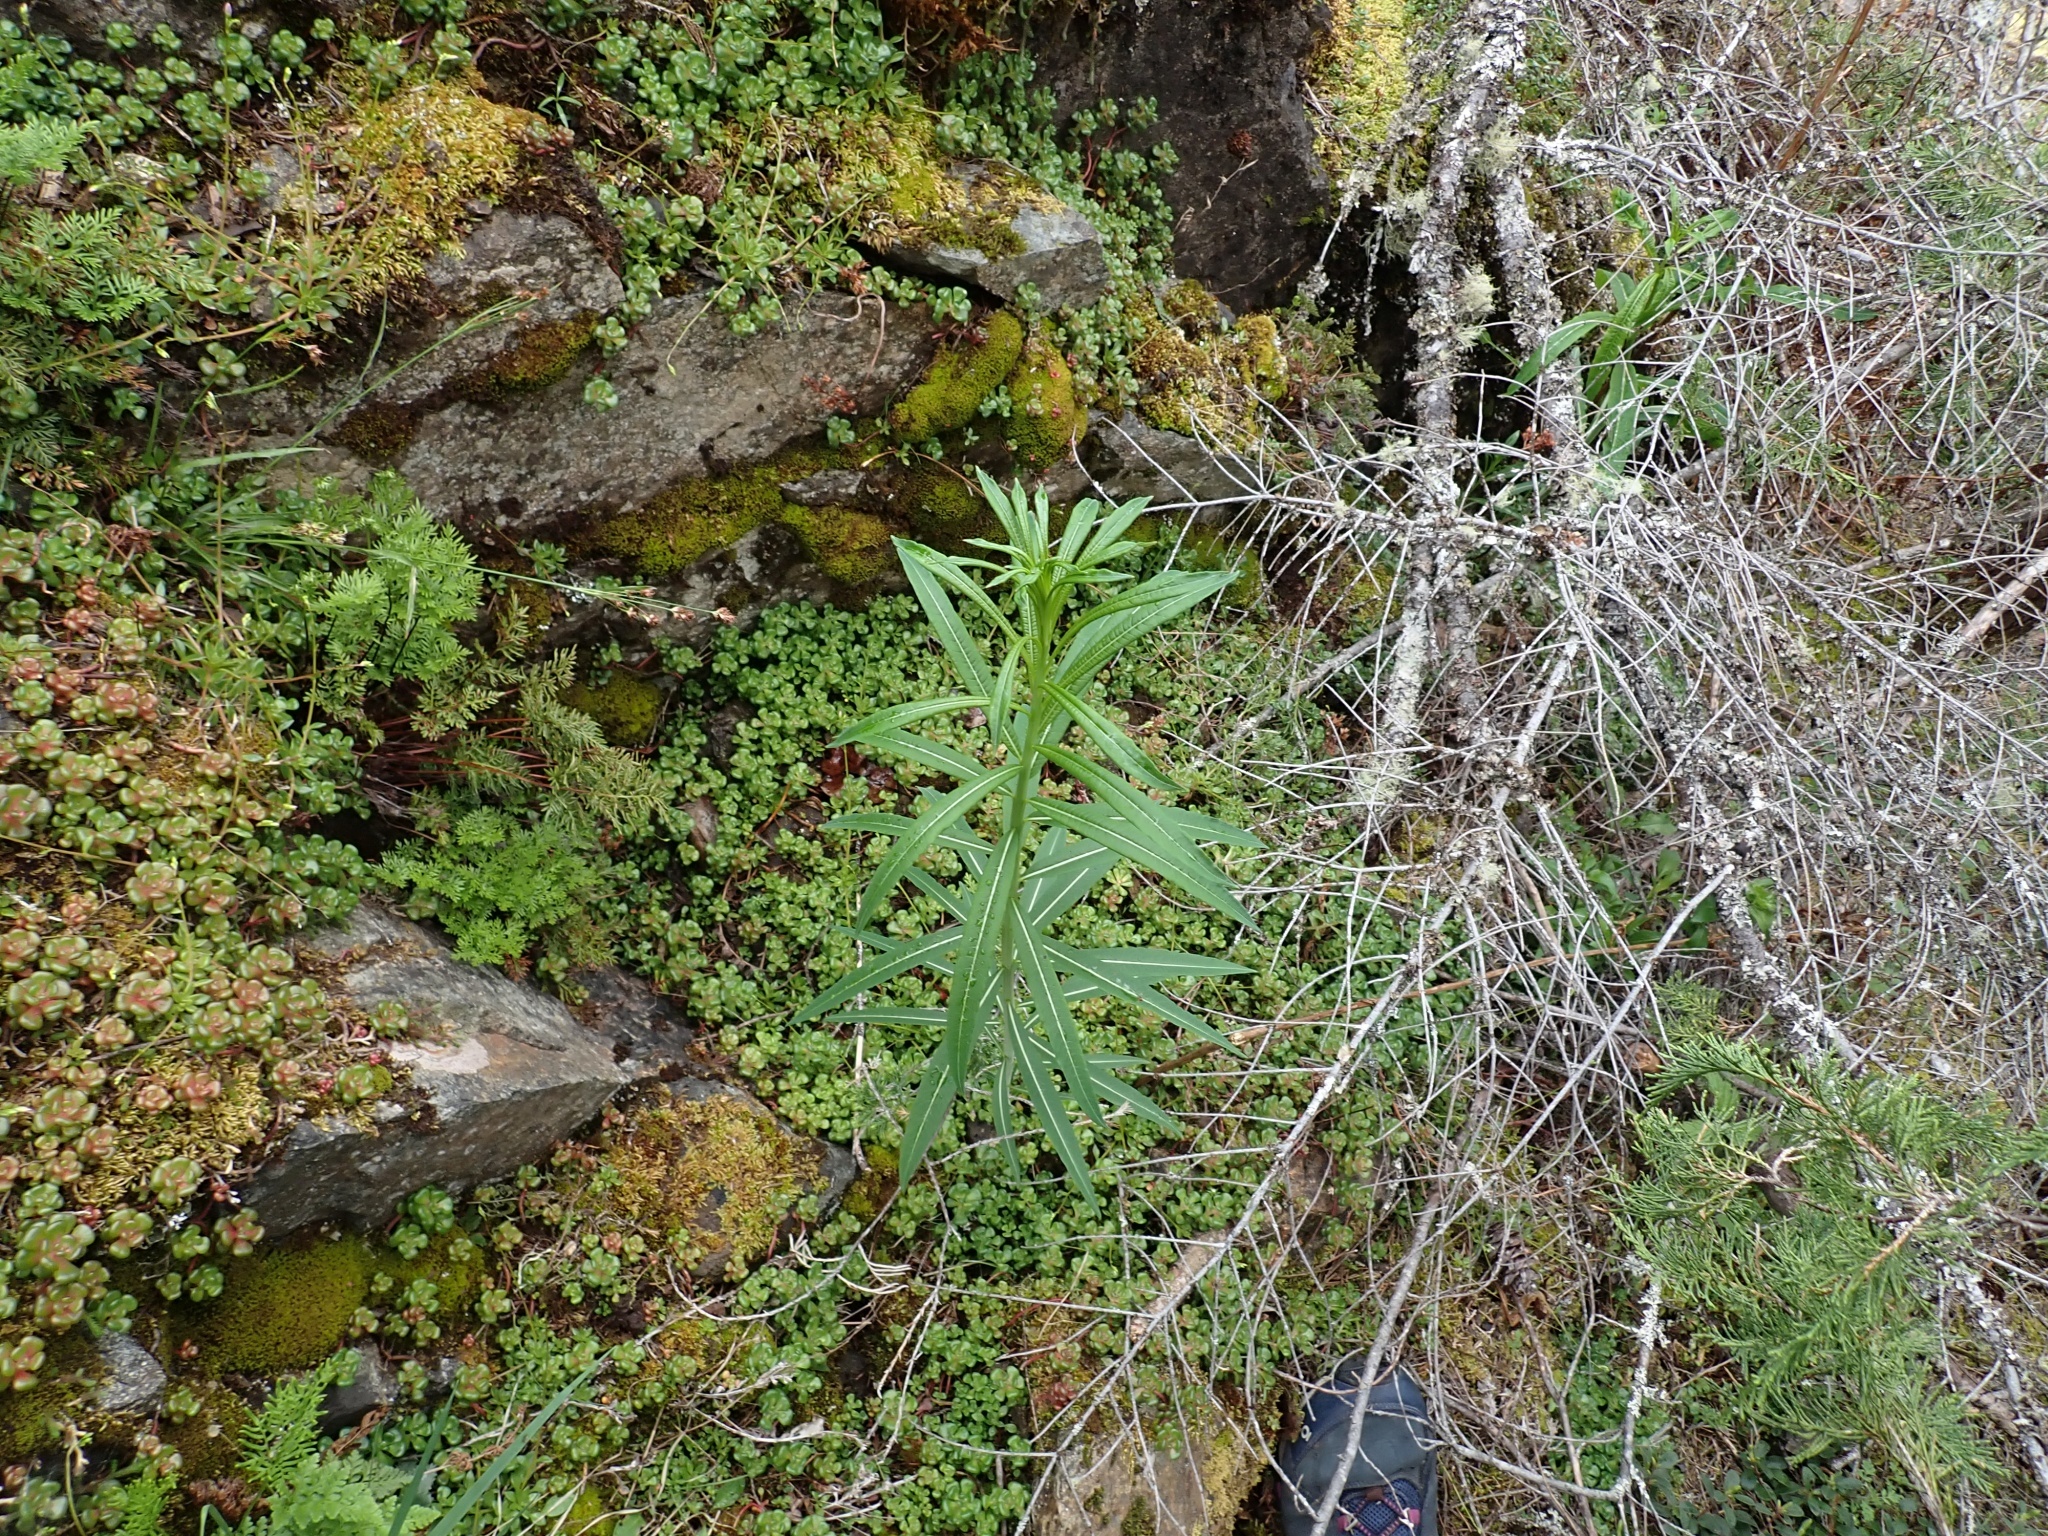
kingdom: Plantae
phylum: Tracheophyta
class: Magnoliopsida
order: Myrtales
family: Onagraceae
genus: Chamaenerion
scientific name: Chamaenerion angustifolium
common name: Fireweed
